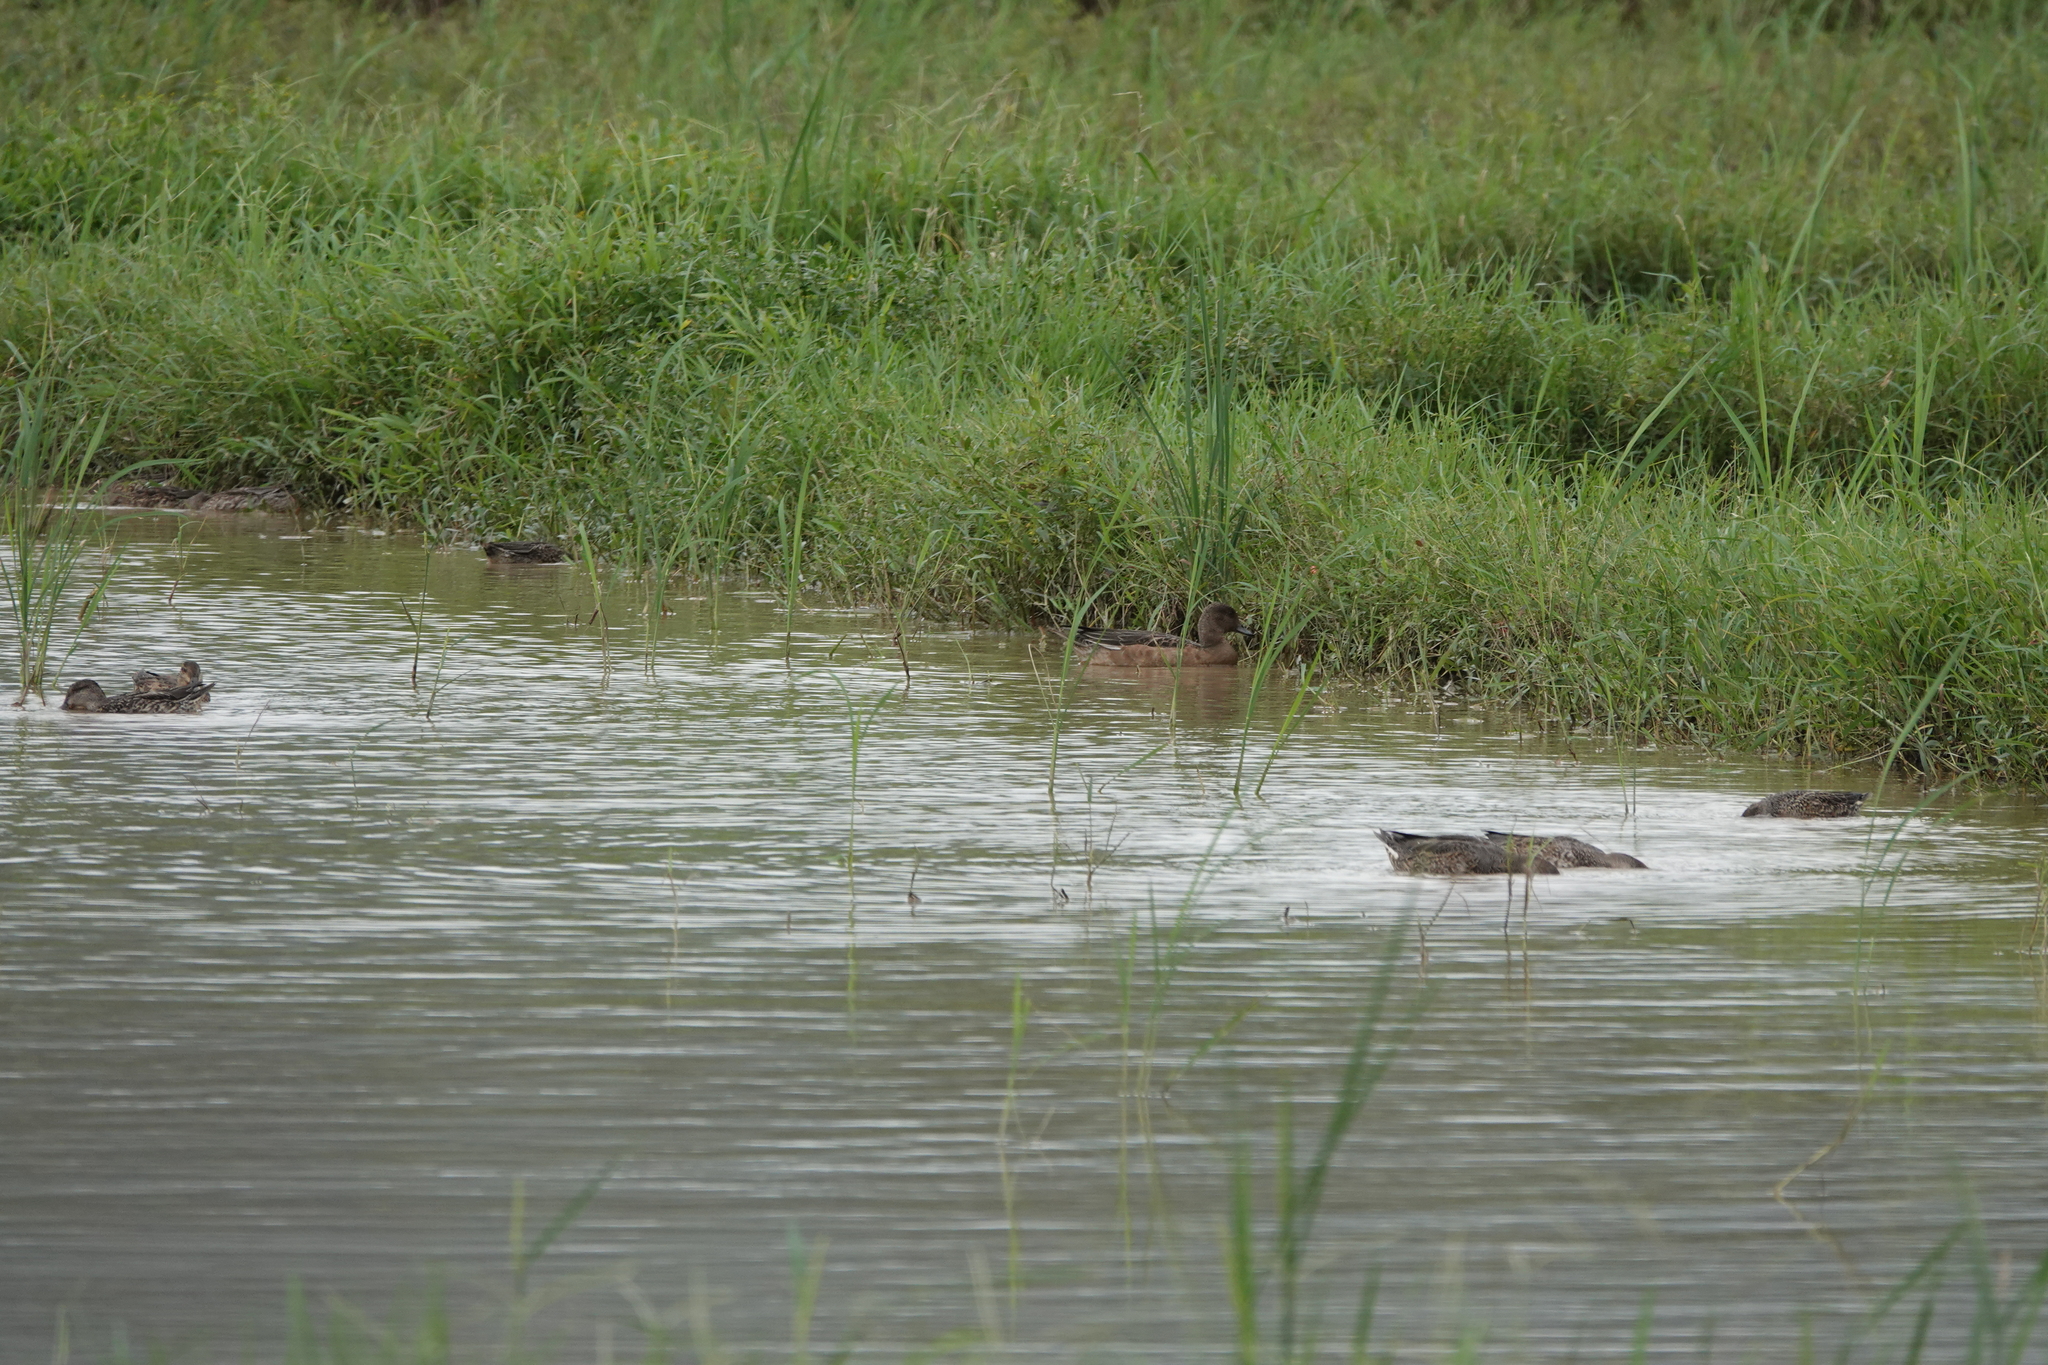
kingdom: Animalia
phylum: Chordata
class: Aves
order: Anseriformes
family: Anatidae
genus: Mareca
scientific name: Mareca penelope
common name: Eurasian wigeon
